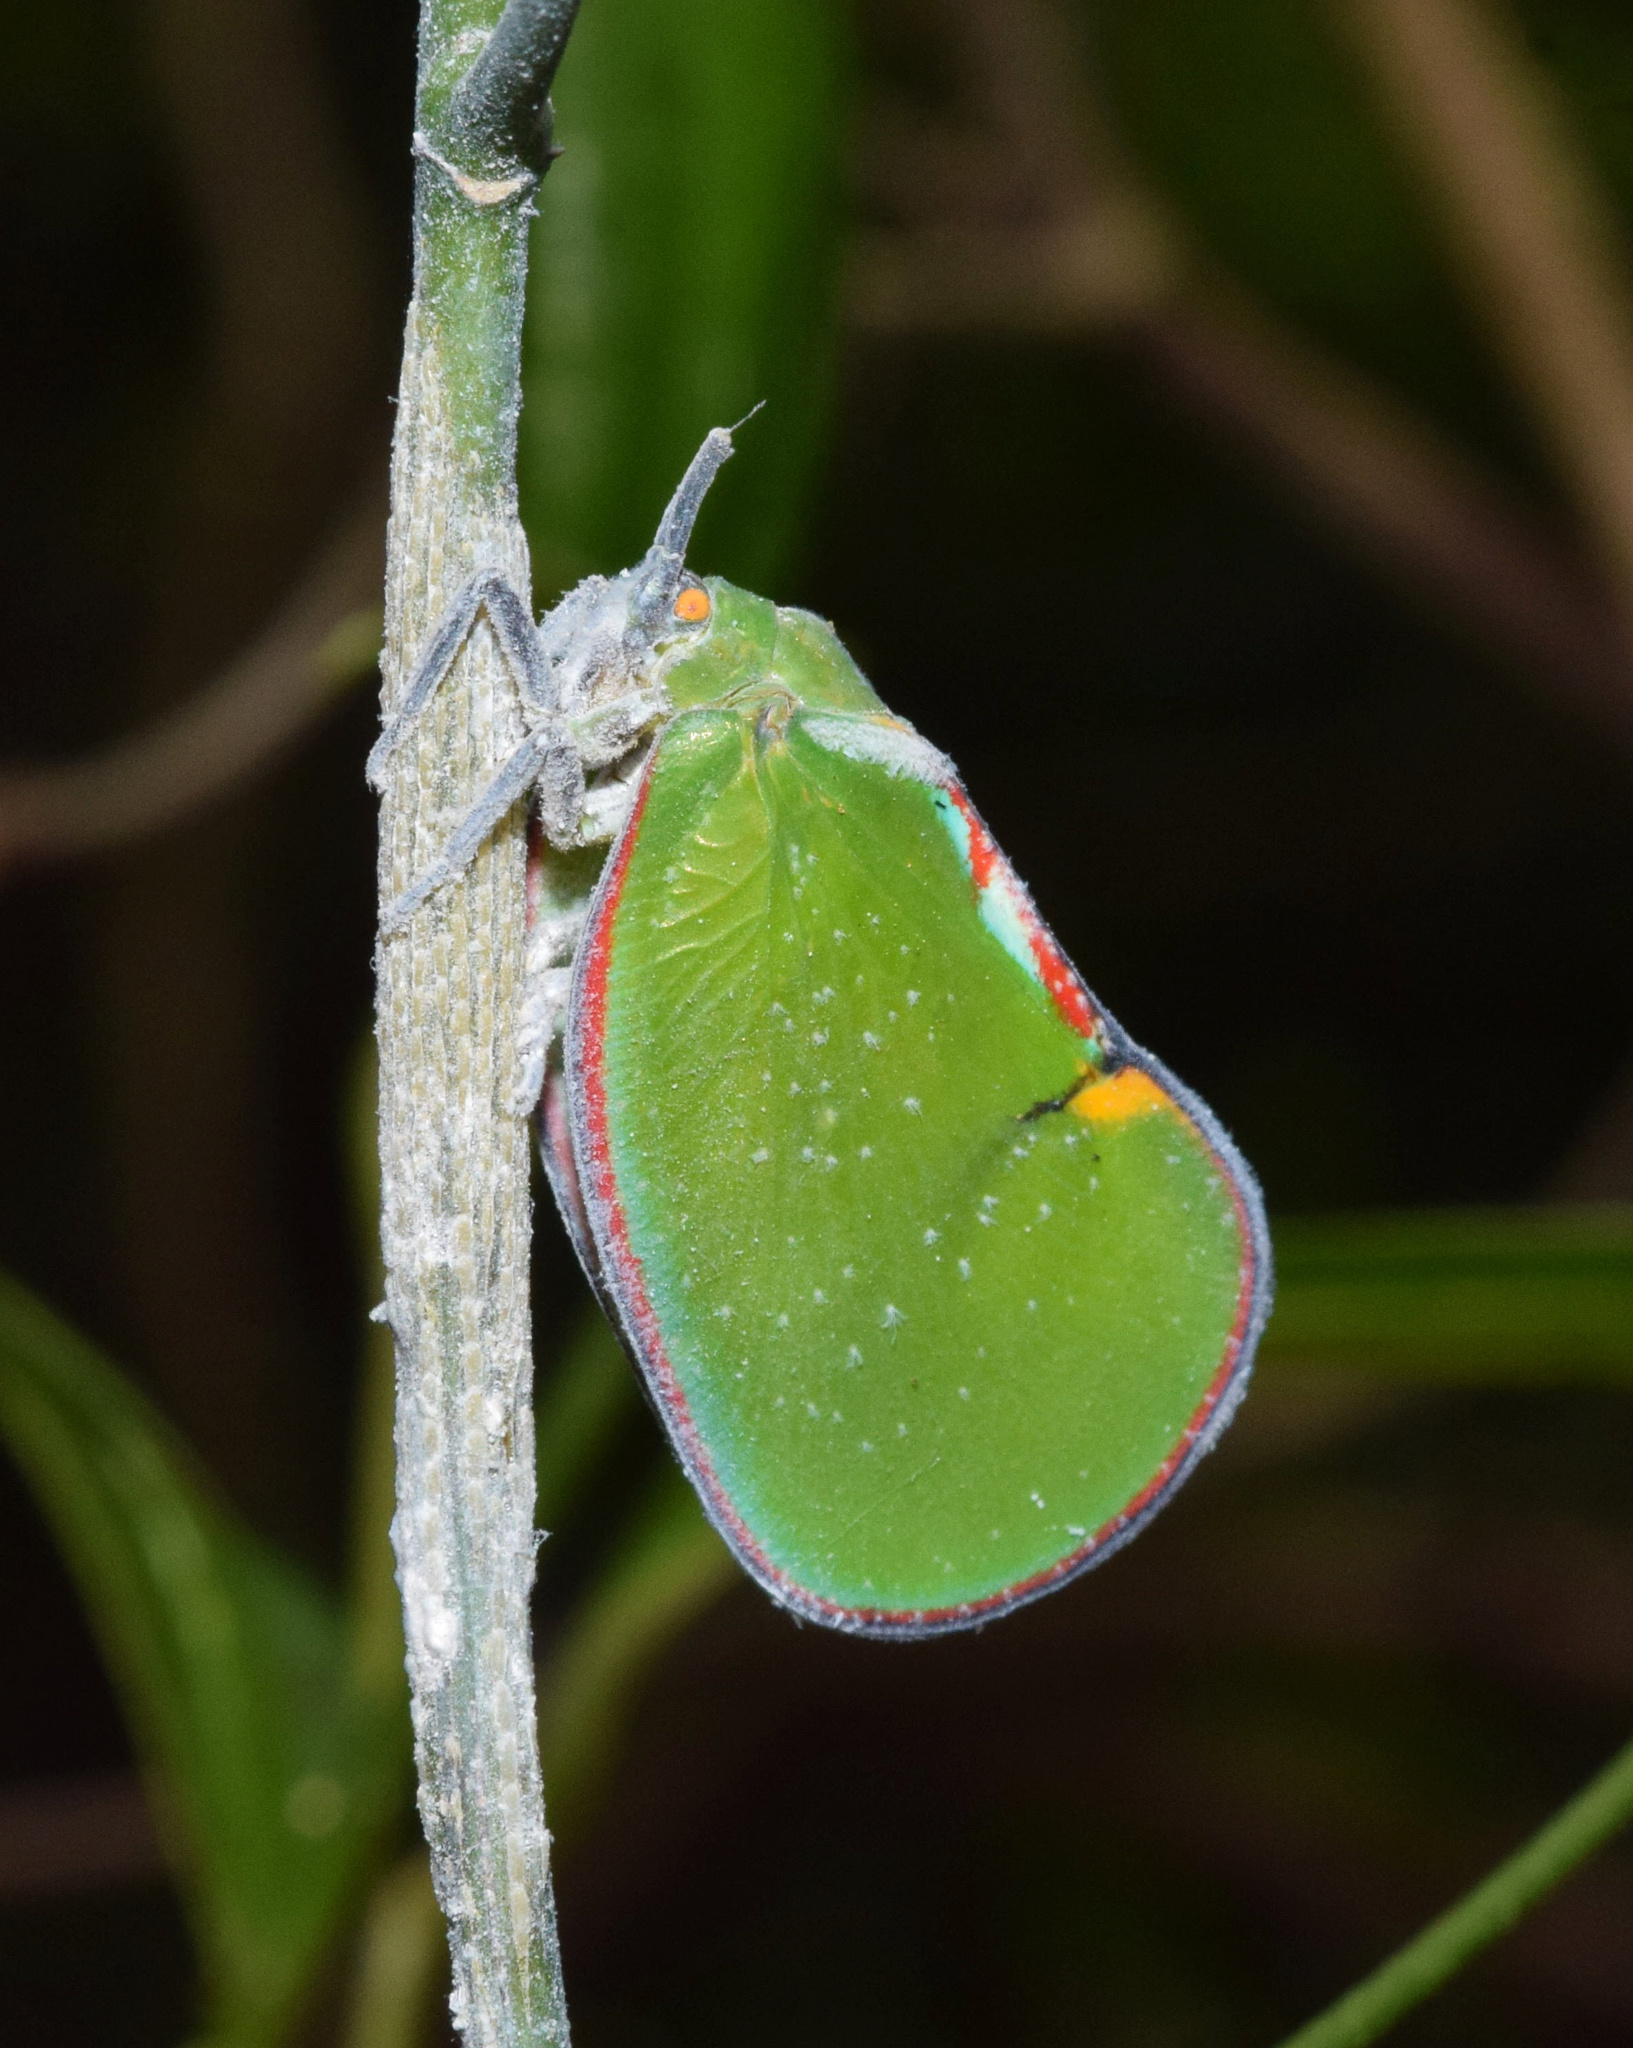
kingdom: Animalia
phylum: Arthropoda
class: Insecta
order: Hemiptera
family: Flatidae
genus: Ityraea
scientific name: Ityraea nigrocincta
